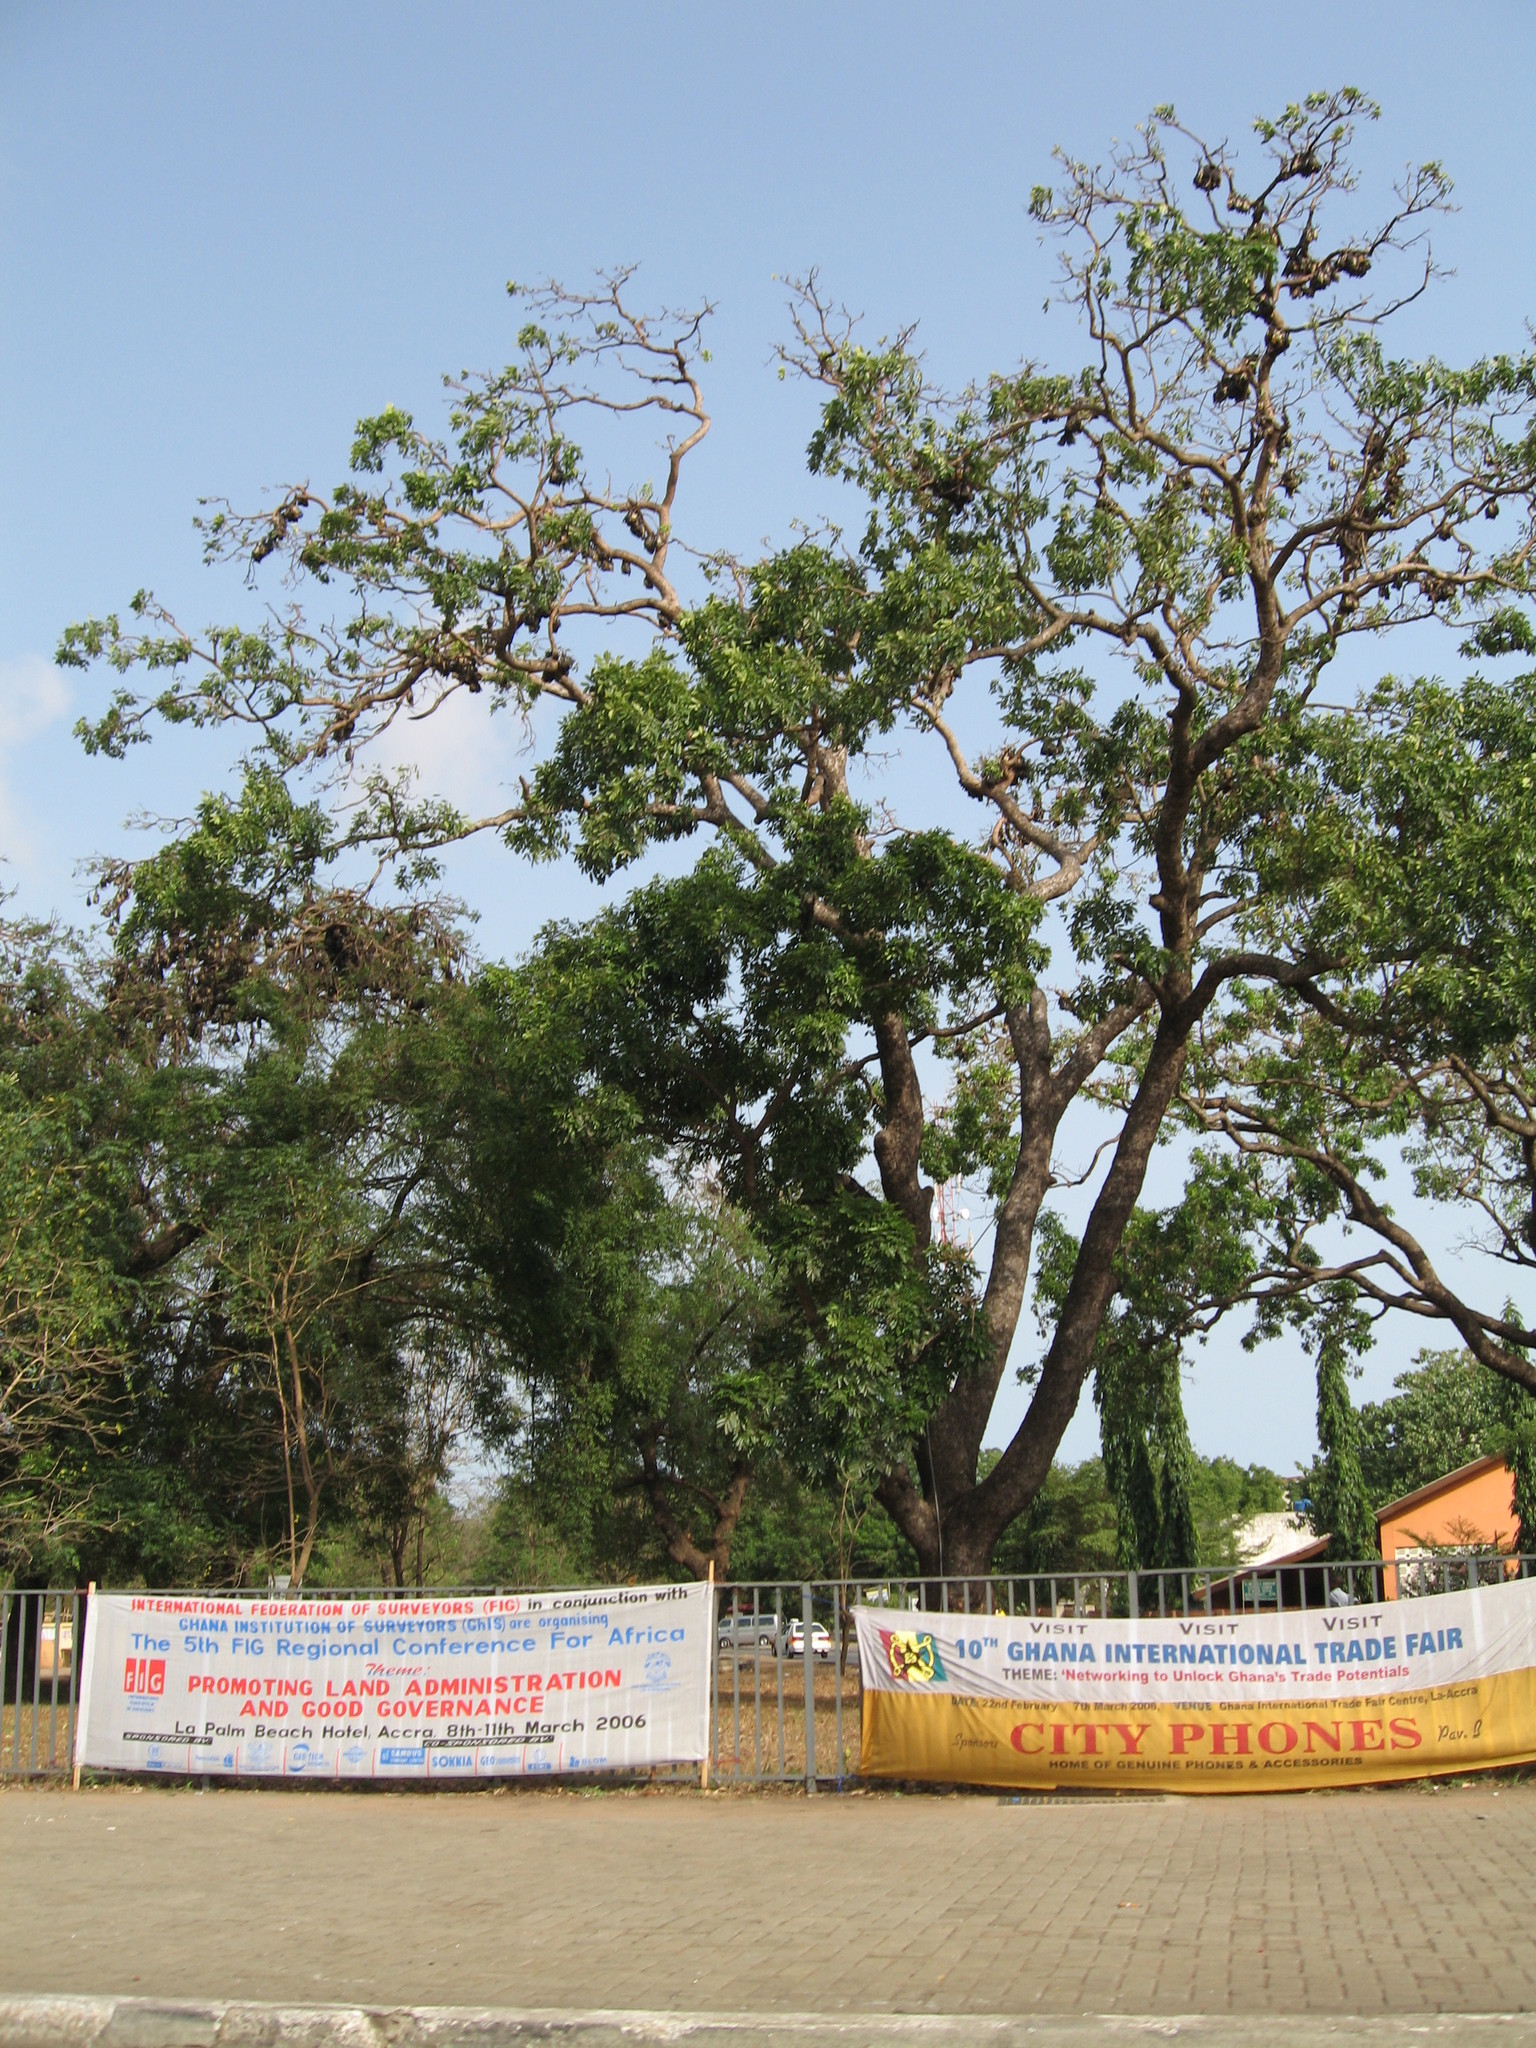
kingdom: Animalia
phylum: Chordata
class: Mammalia
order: Chiroptera
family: Pteropodidae
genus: Eidolon
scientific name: Eidolon helvum
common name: Straw-colored fruit bat
